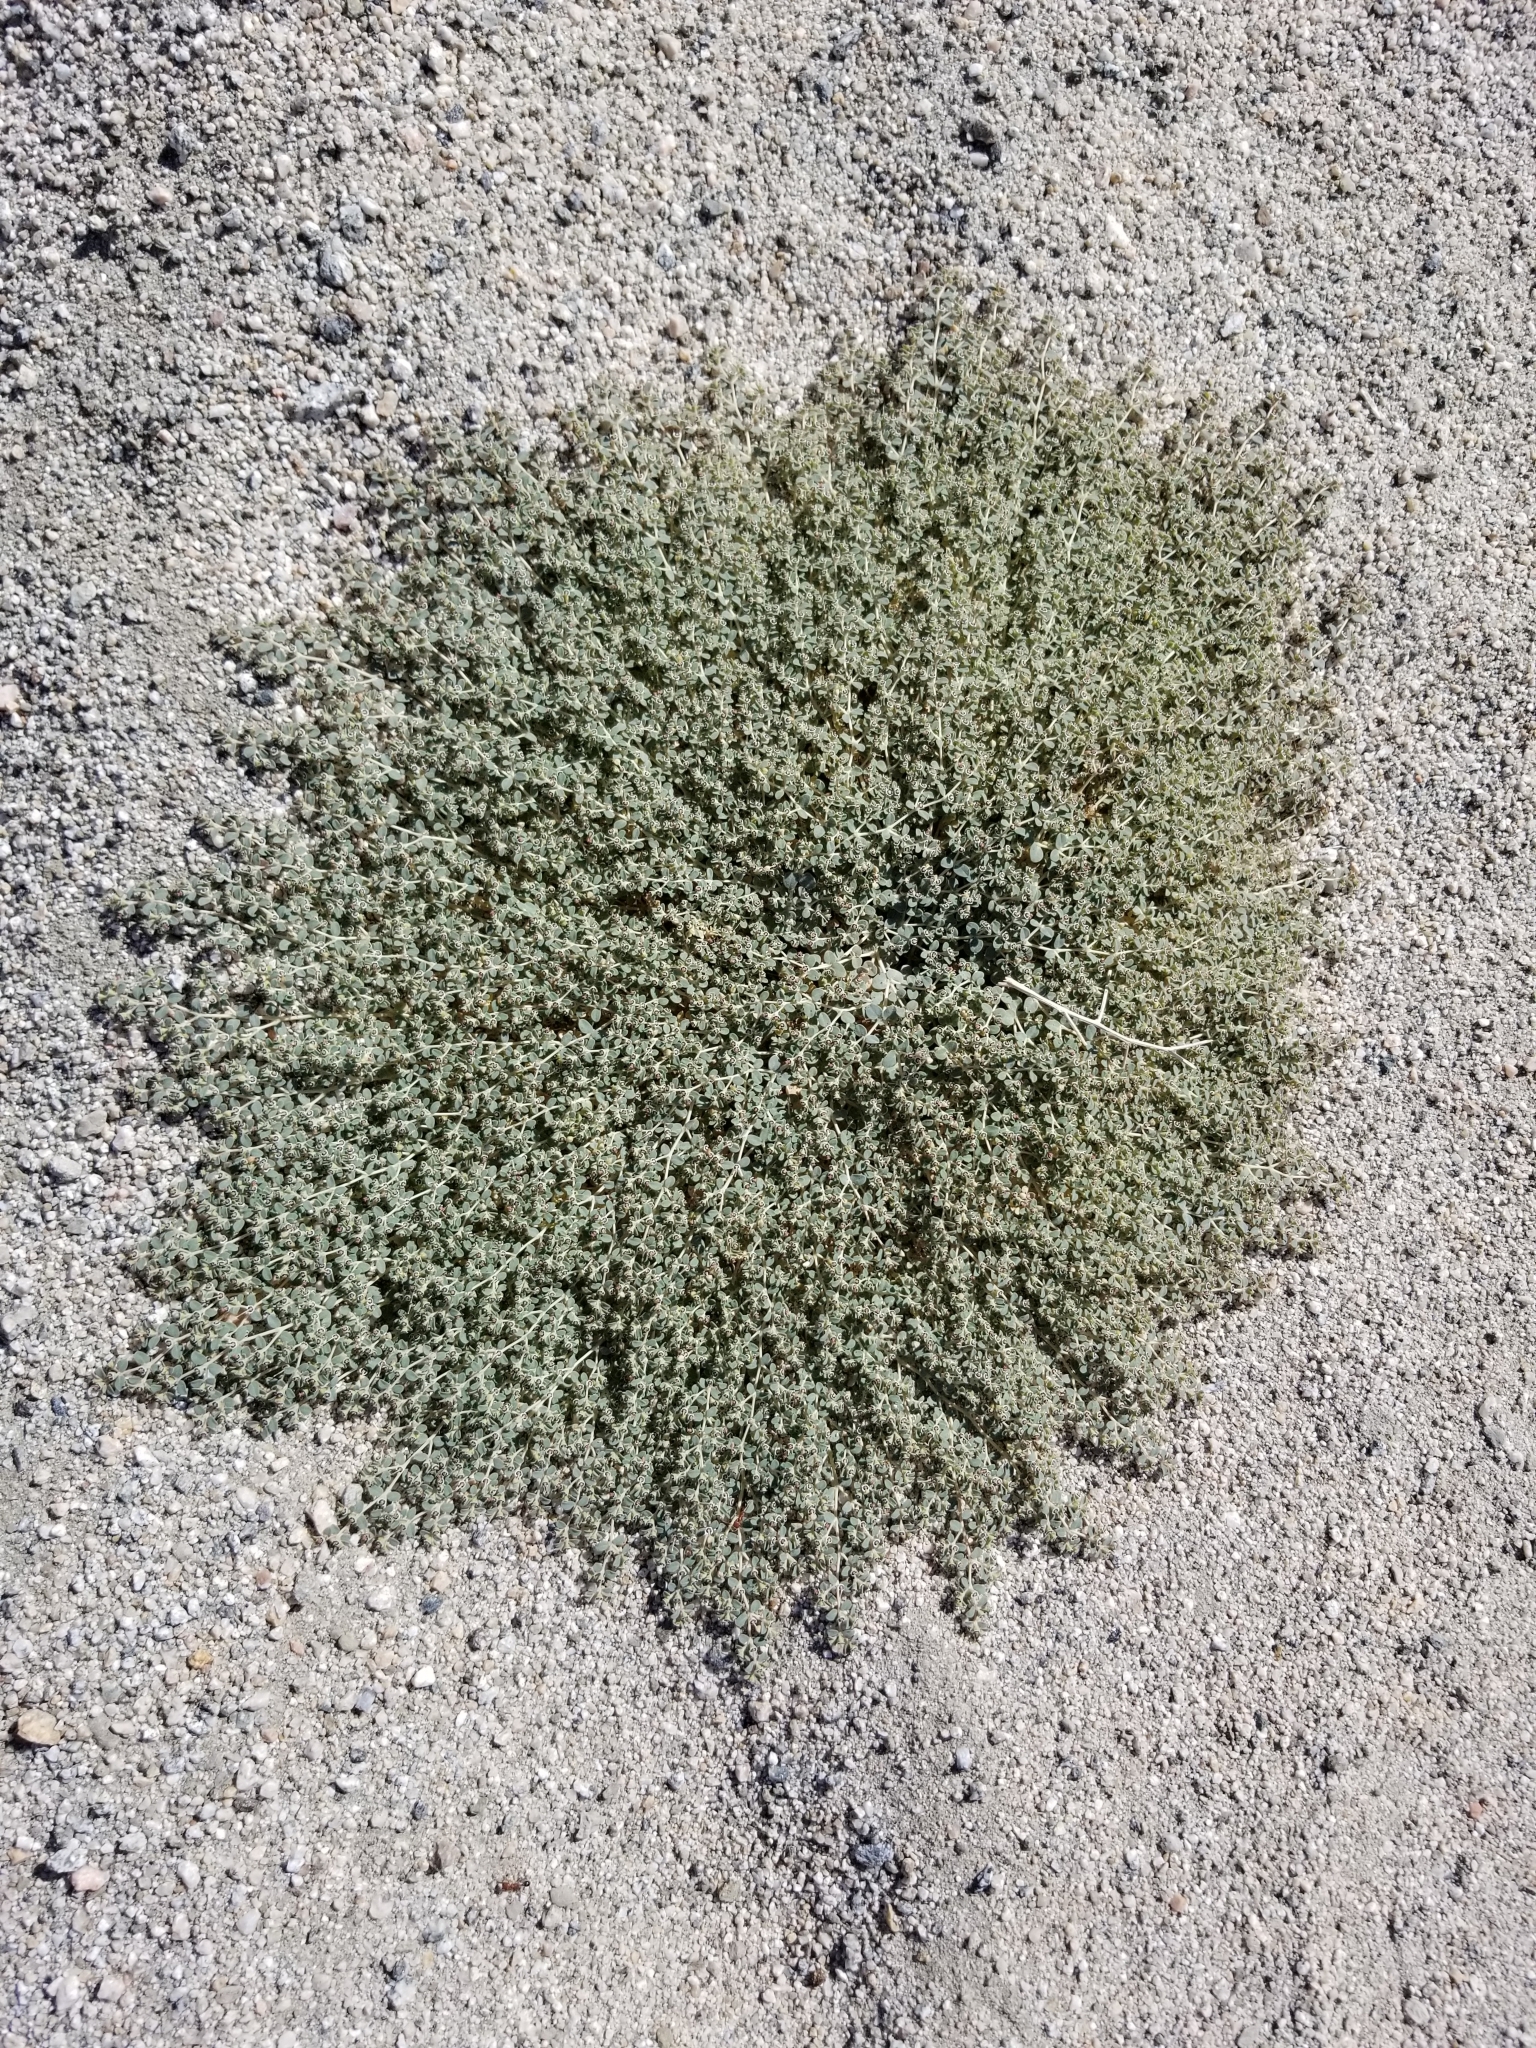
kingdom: Plantae
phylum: Tracheophyta
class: Magnoliopsida
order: Malpighiales
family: Euphorbiaceae
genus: Euphorbia
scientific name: Euphorbia polycarpa
